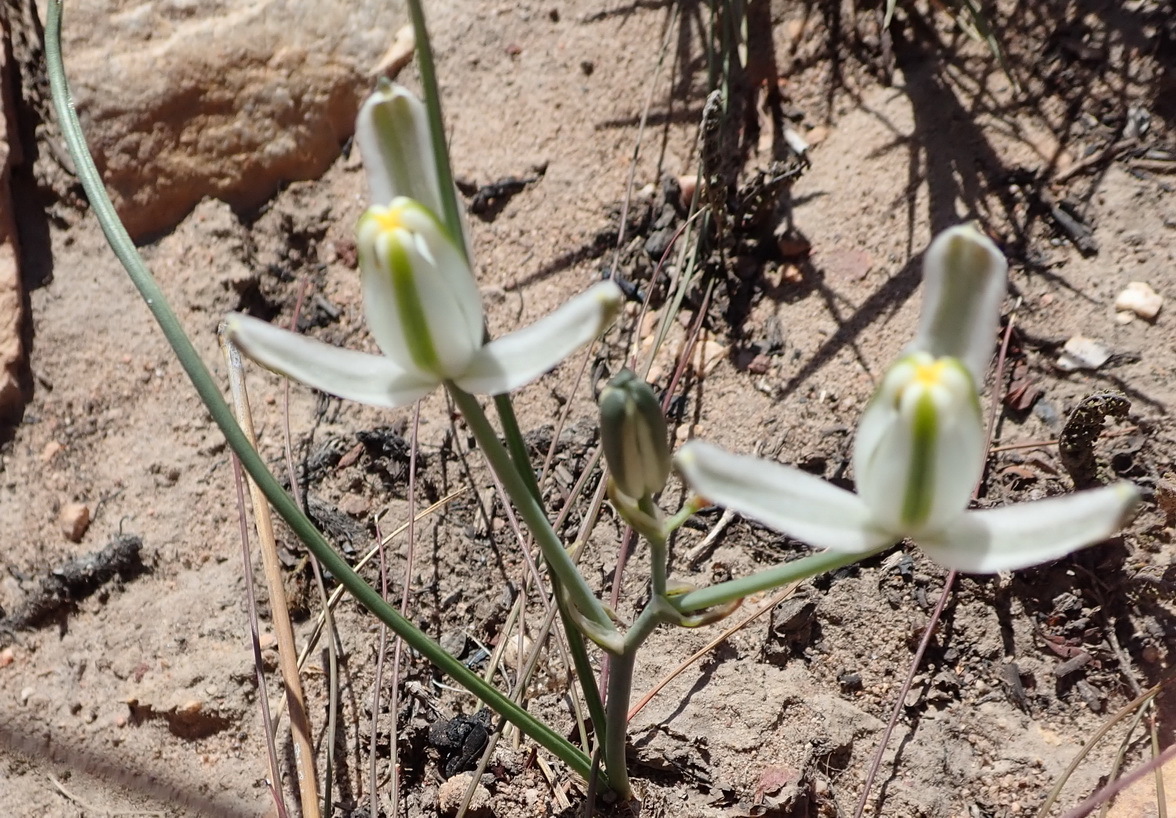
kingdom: Plantae
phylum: Tracheophyta
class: Liliopsida
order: Asparagales
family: Asparagaceae
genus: Albuca
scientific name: Albuca longipes
